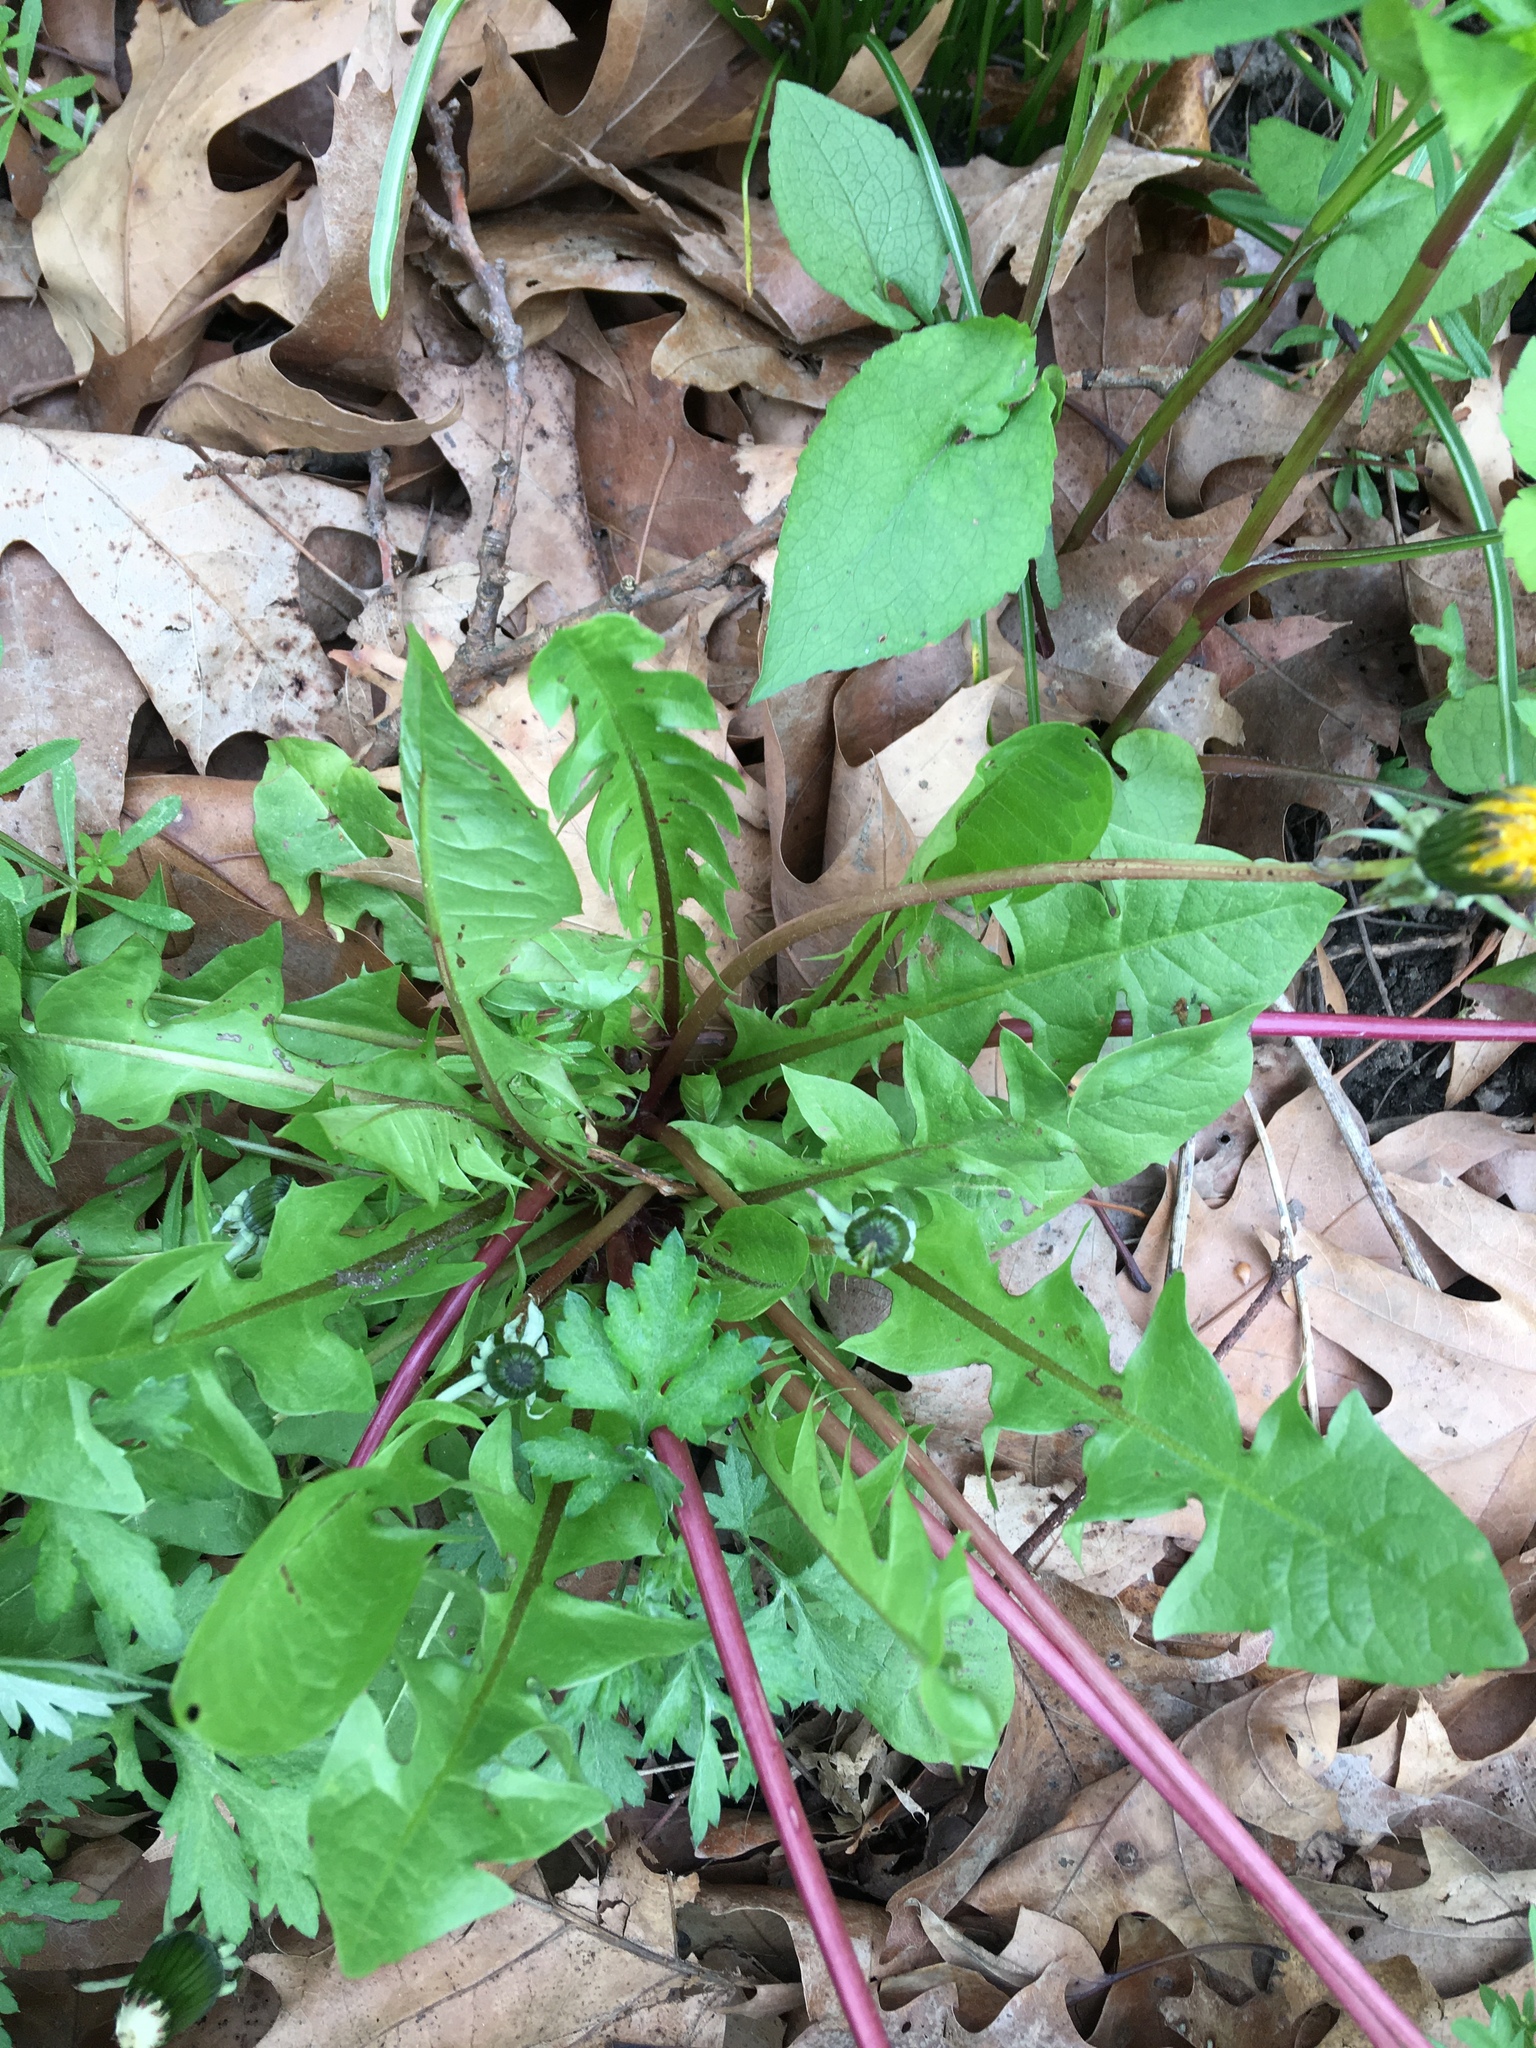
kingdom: Plantae
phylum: Tracheophyta
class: Magnoliopsida
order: Asterales
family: Asteraceae
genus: Taraxacum
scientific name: Taraxacum officinale
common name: Common dandelion
